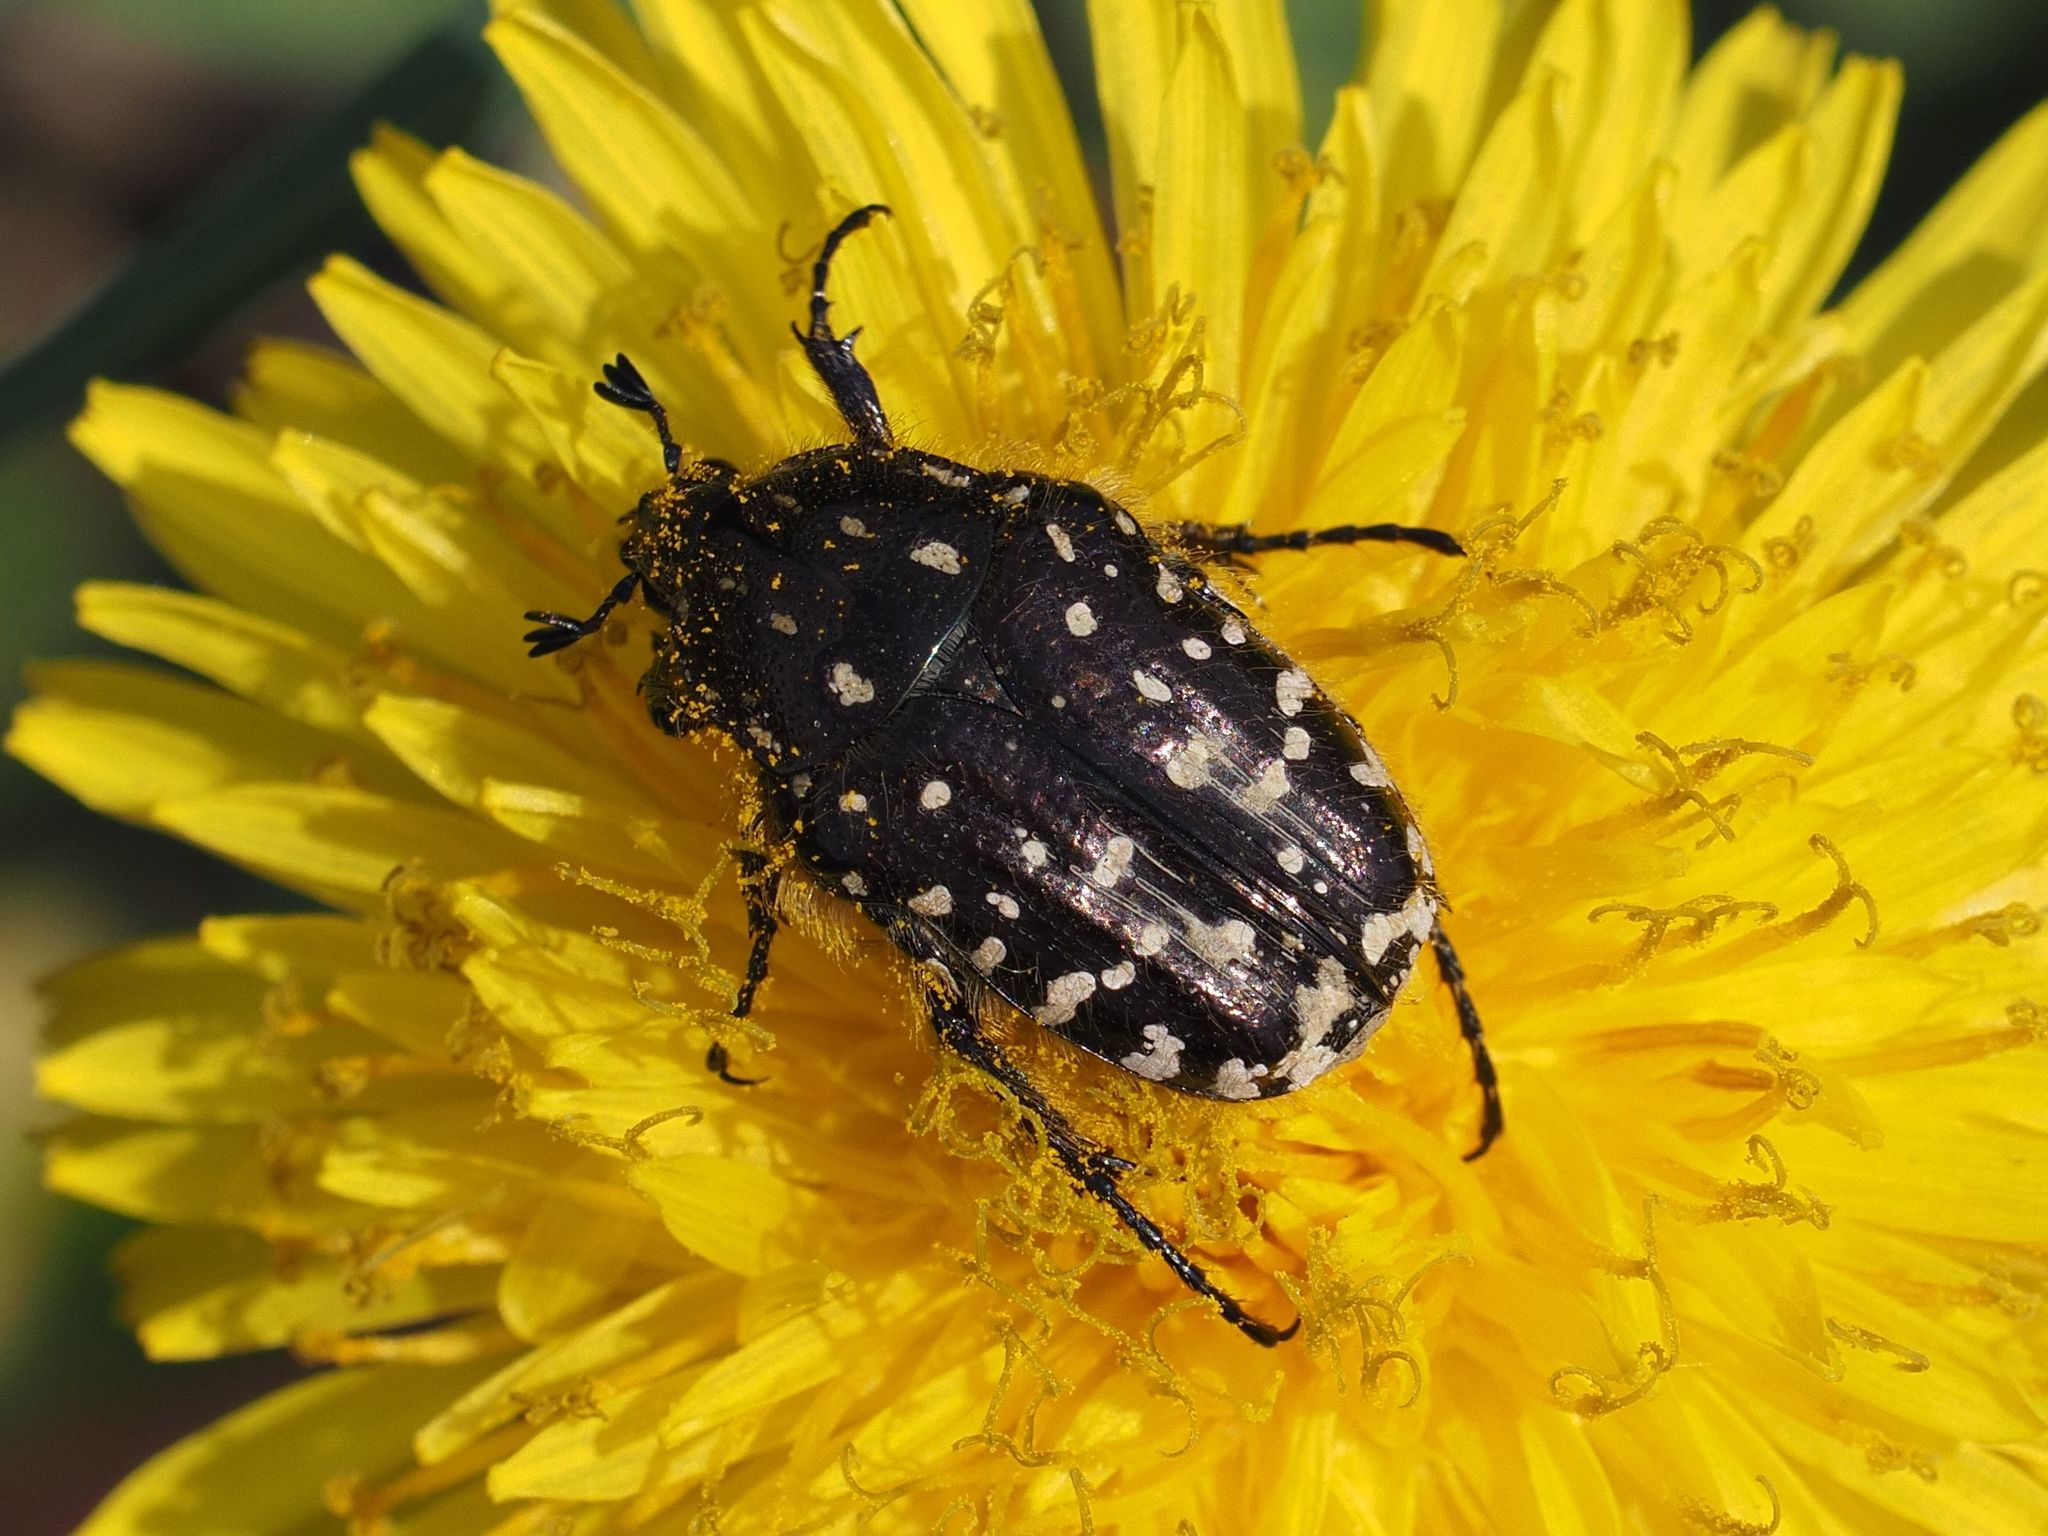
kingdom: Animalia
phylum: Arthropoda
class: Insecta
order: Coleoptera
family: Scarabaeidae
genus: Oxythyrea
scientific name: Oxythyrea funesta
